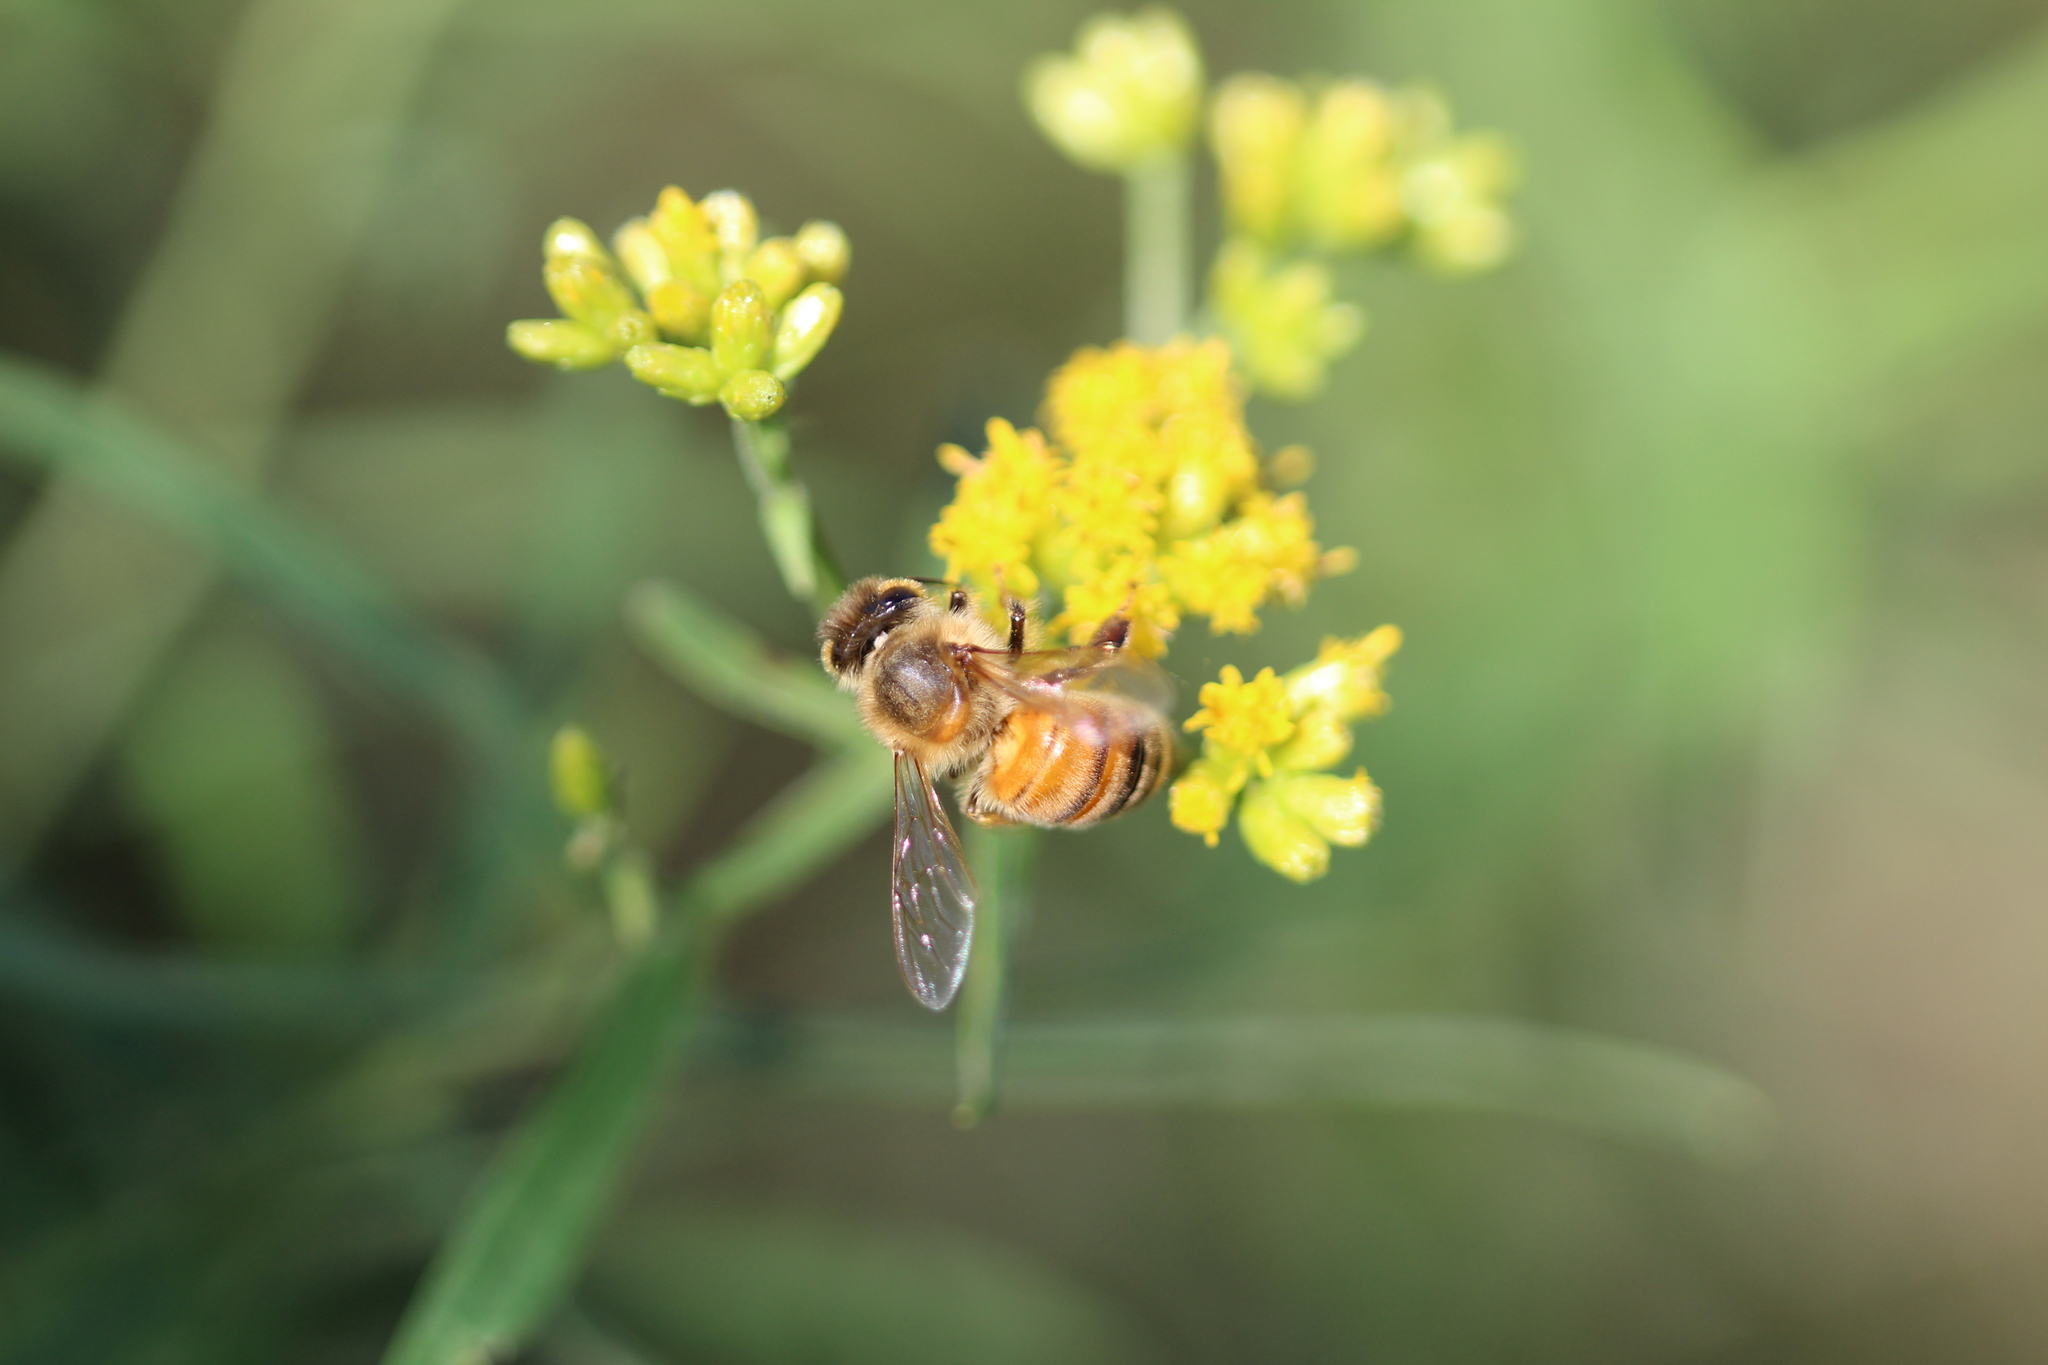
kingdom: Animalia
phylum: Arthropoda
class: Insecta
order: Hymenoptera
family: Apidae
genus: Apis
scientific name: Apis mellifera
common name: Honey bee
